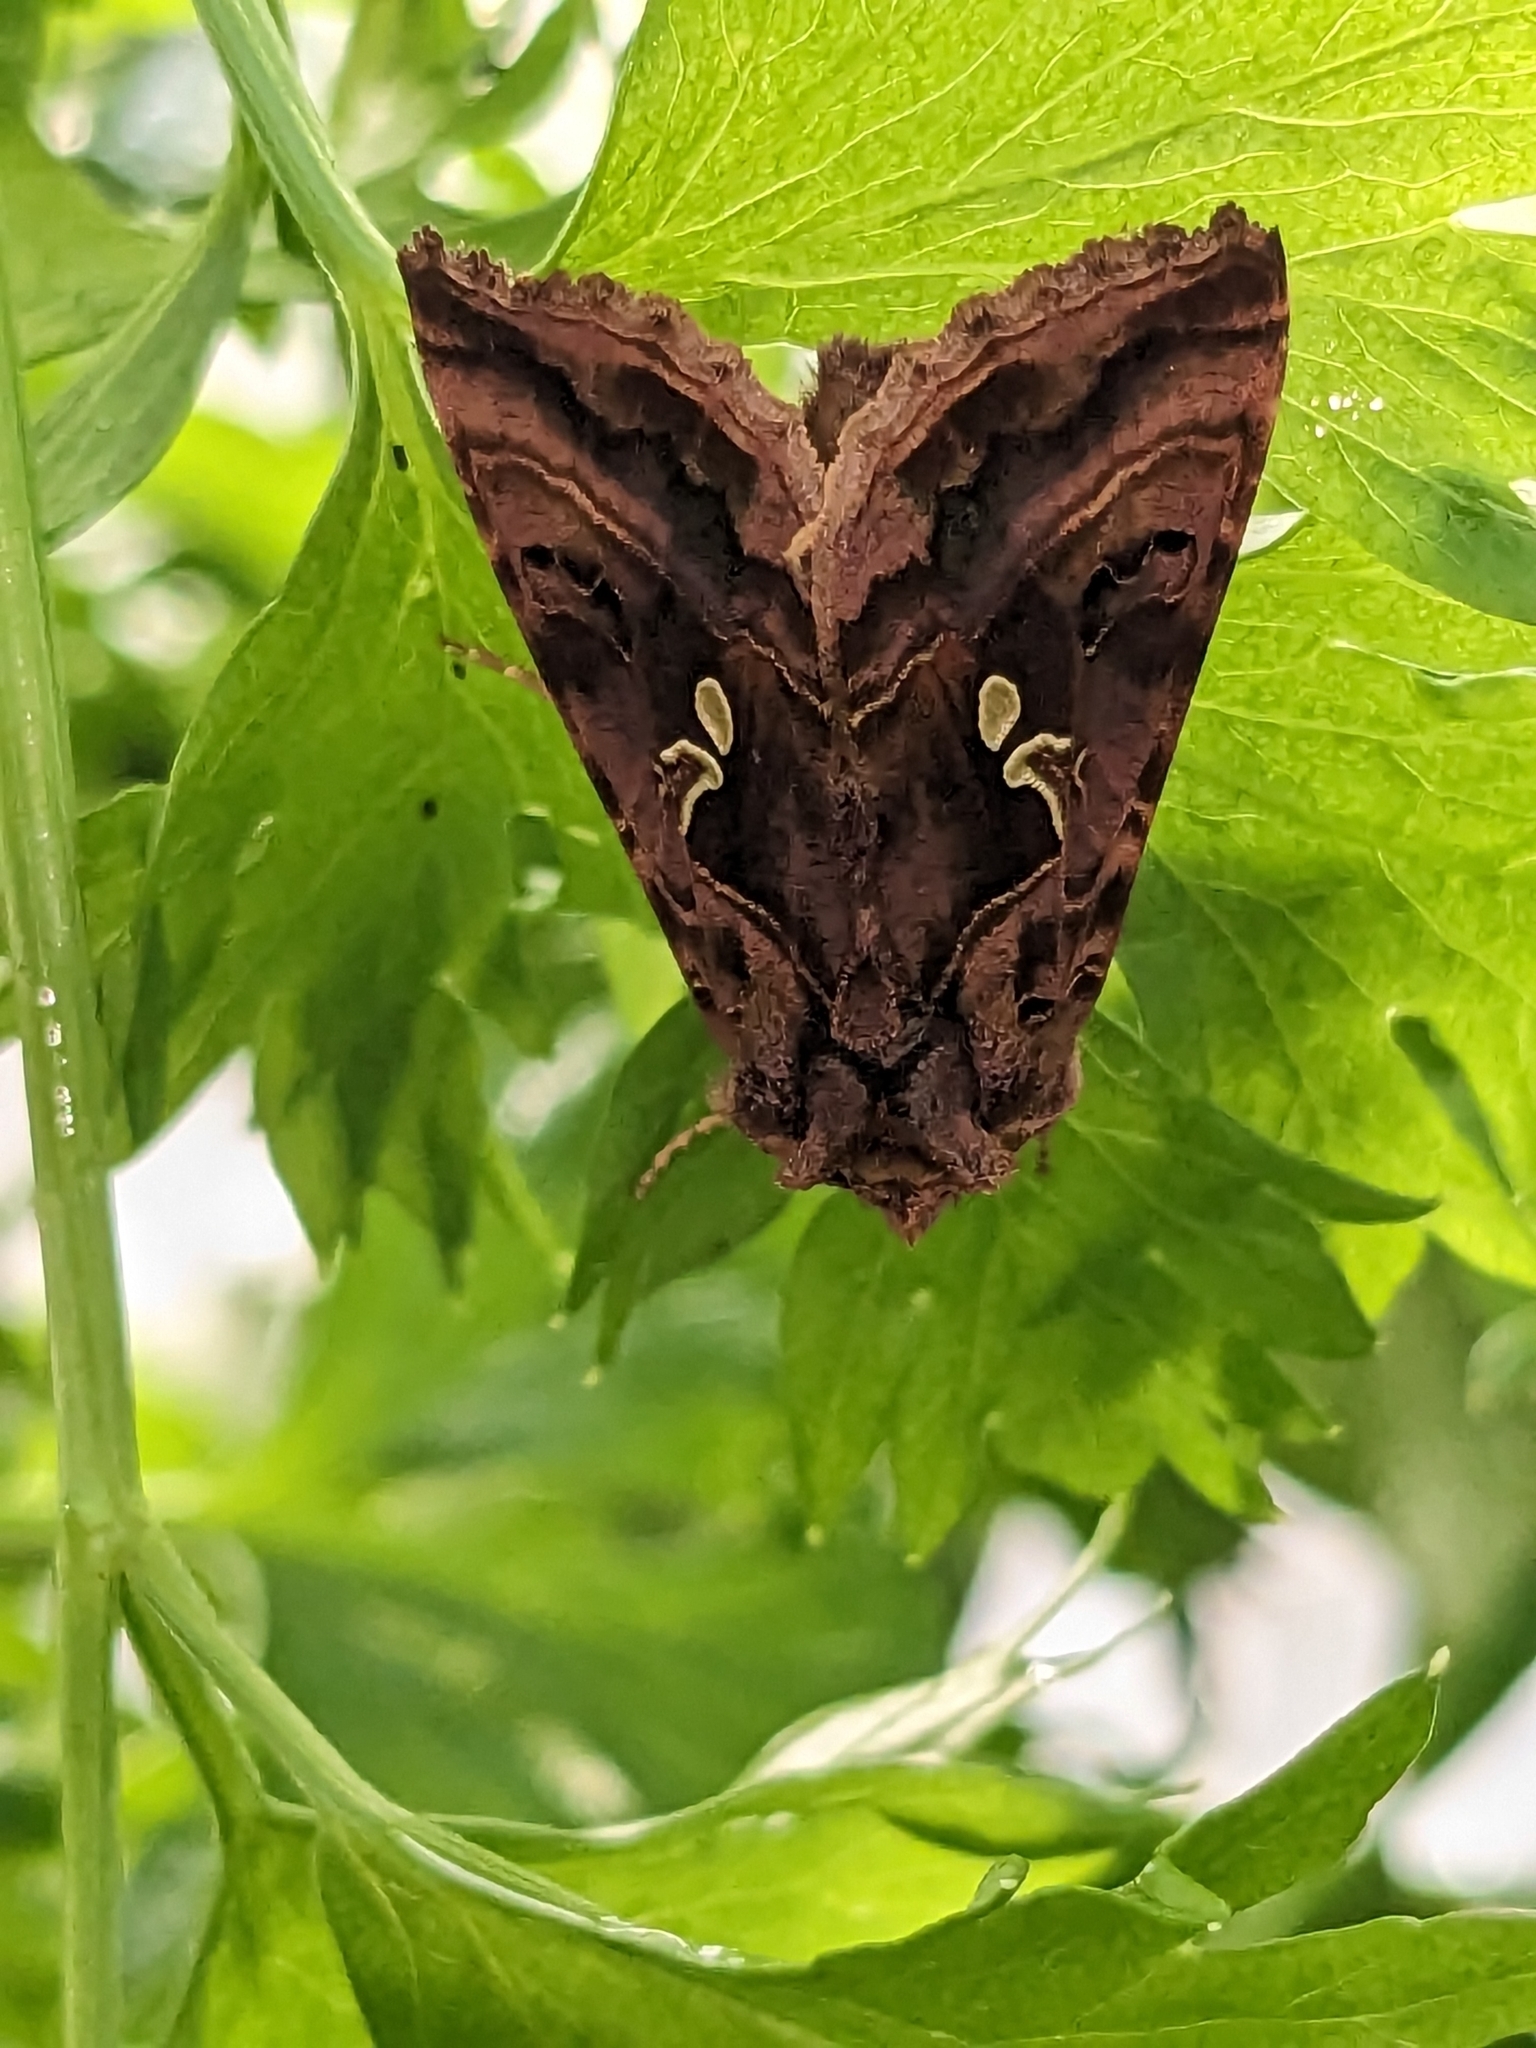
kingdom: Animalia
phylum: Arthropoda
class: Insecta
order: Lepidoptera
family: Noctuidae
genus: Autographa
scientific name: Autographa pulchrina
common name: Beautiful golden y
